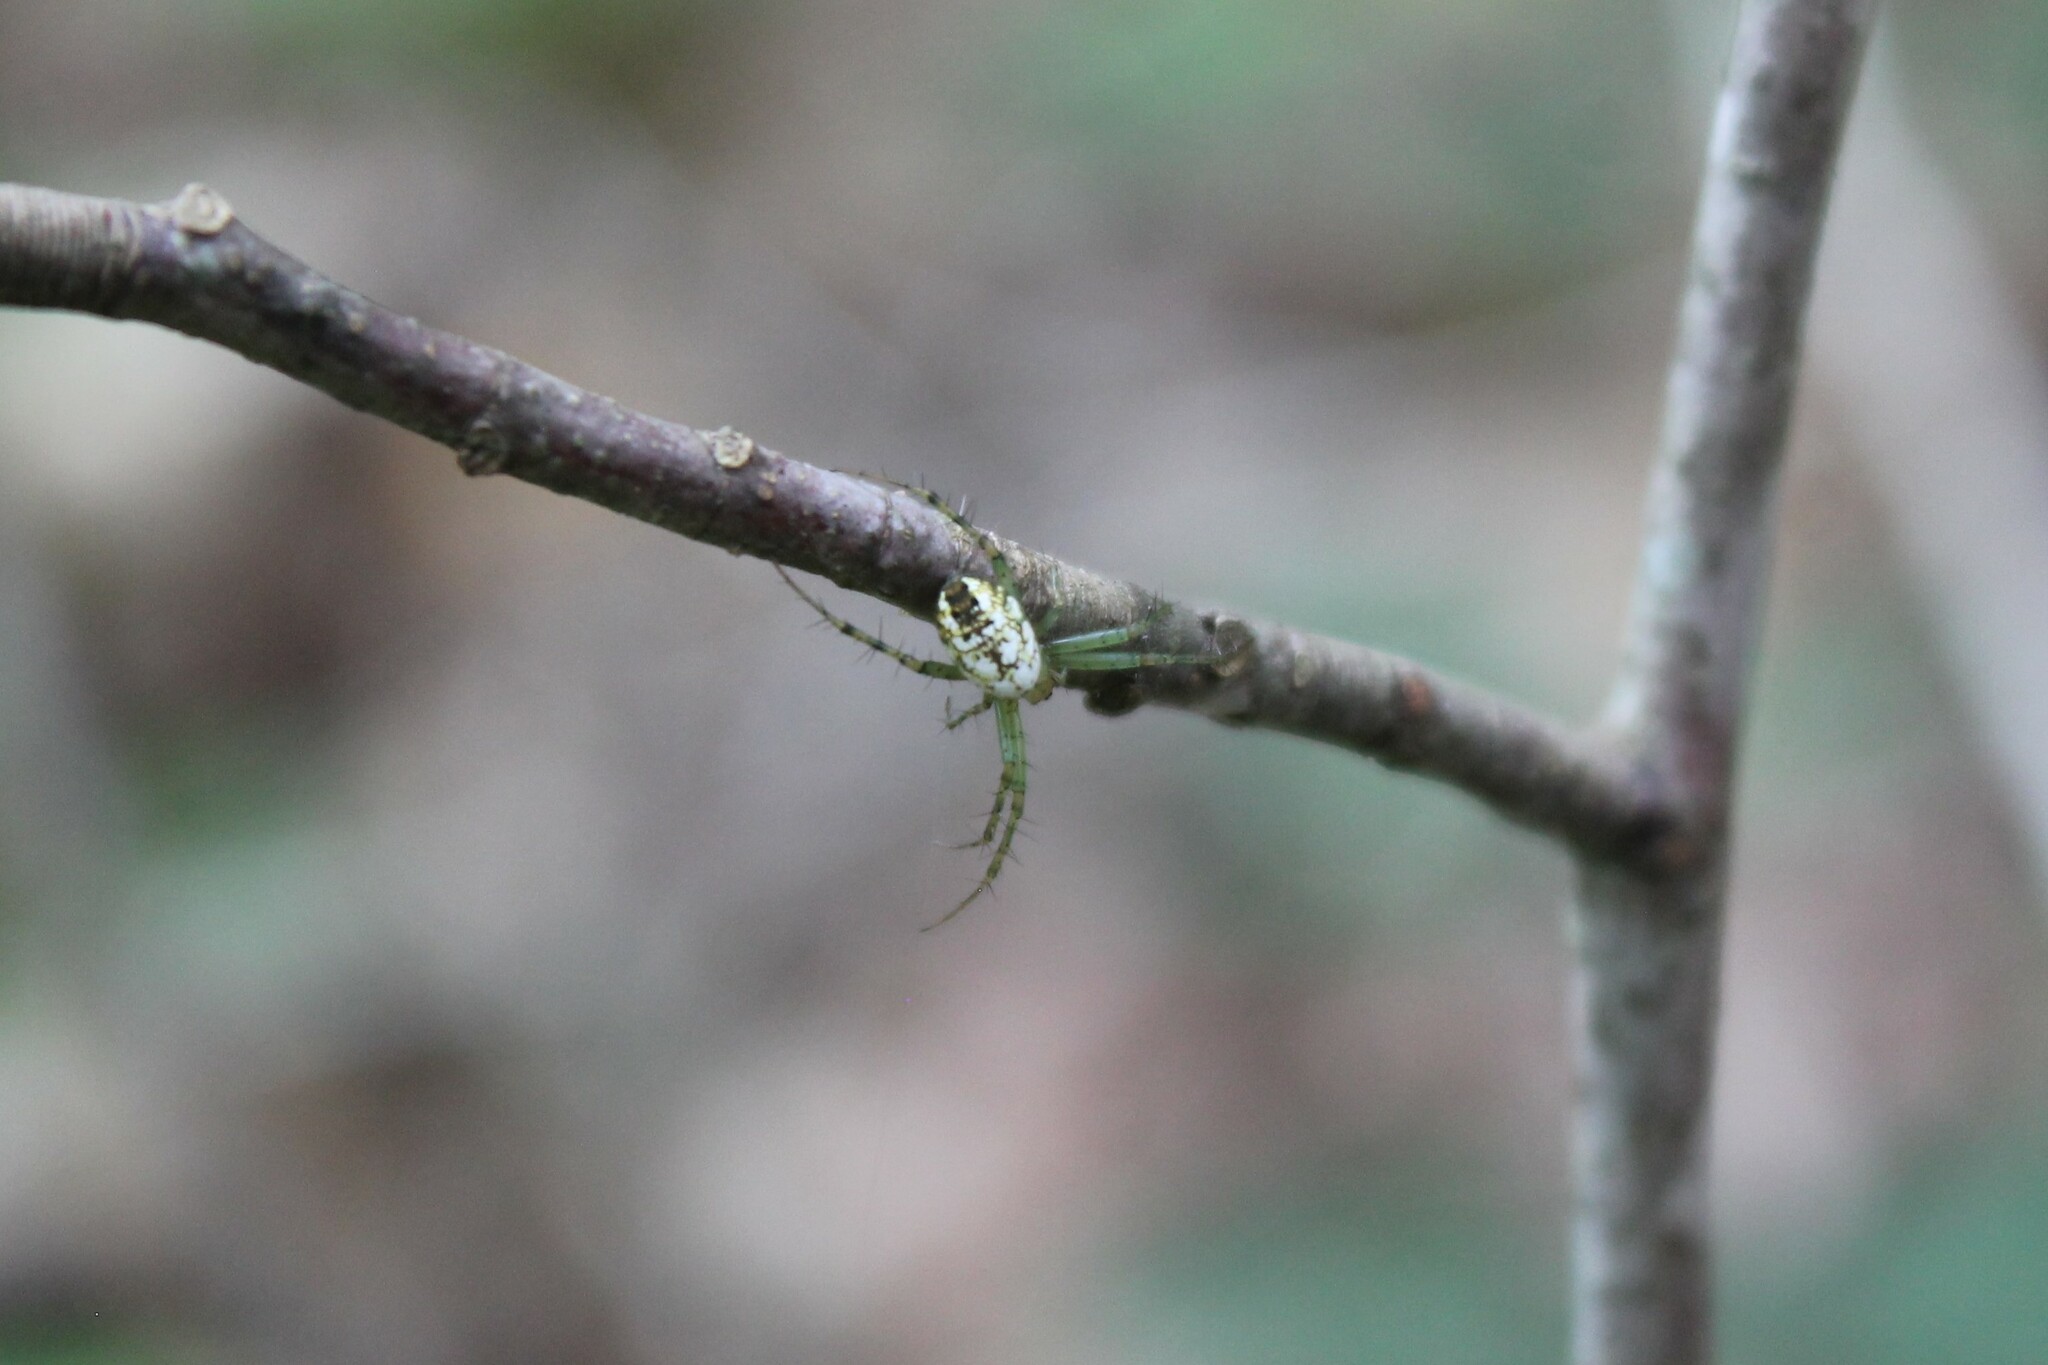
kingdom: Animalia
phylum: Arthropoda
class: Arachnida
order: Araneae
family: Araneidae
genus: Mangora
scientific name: Mangora spiculata
